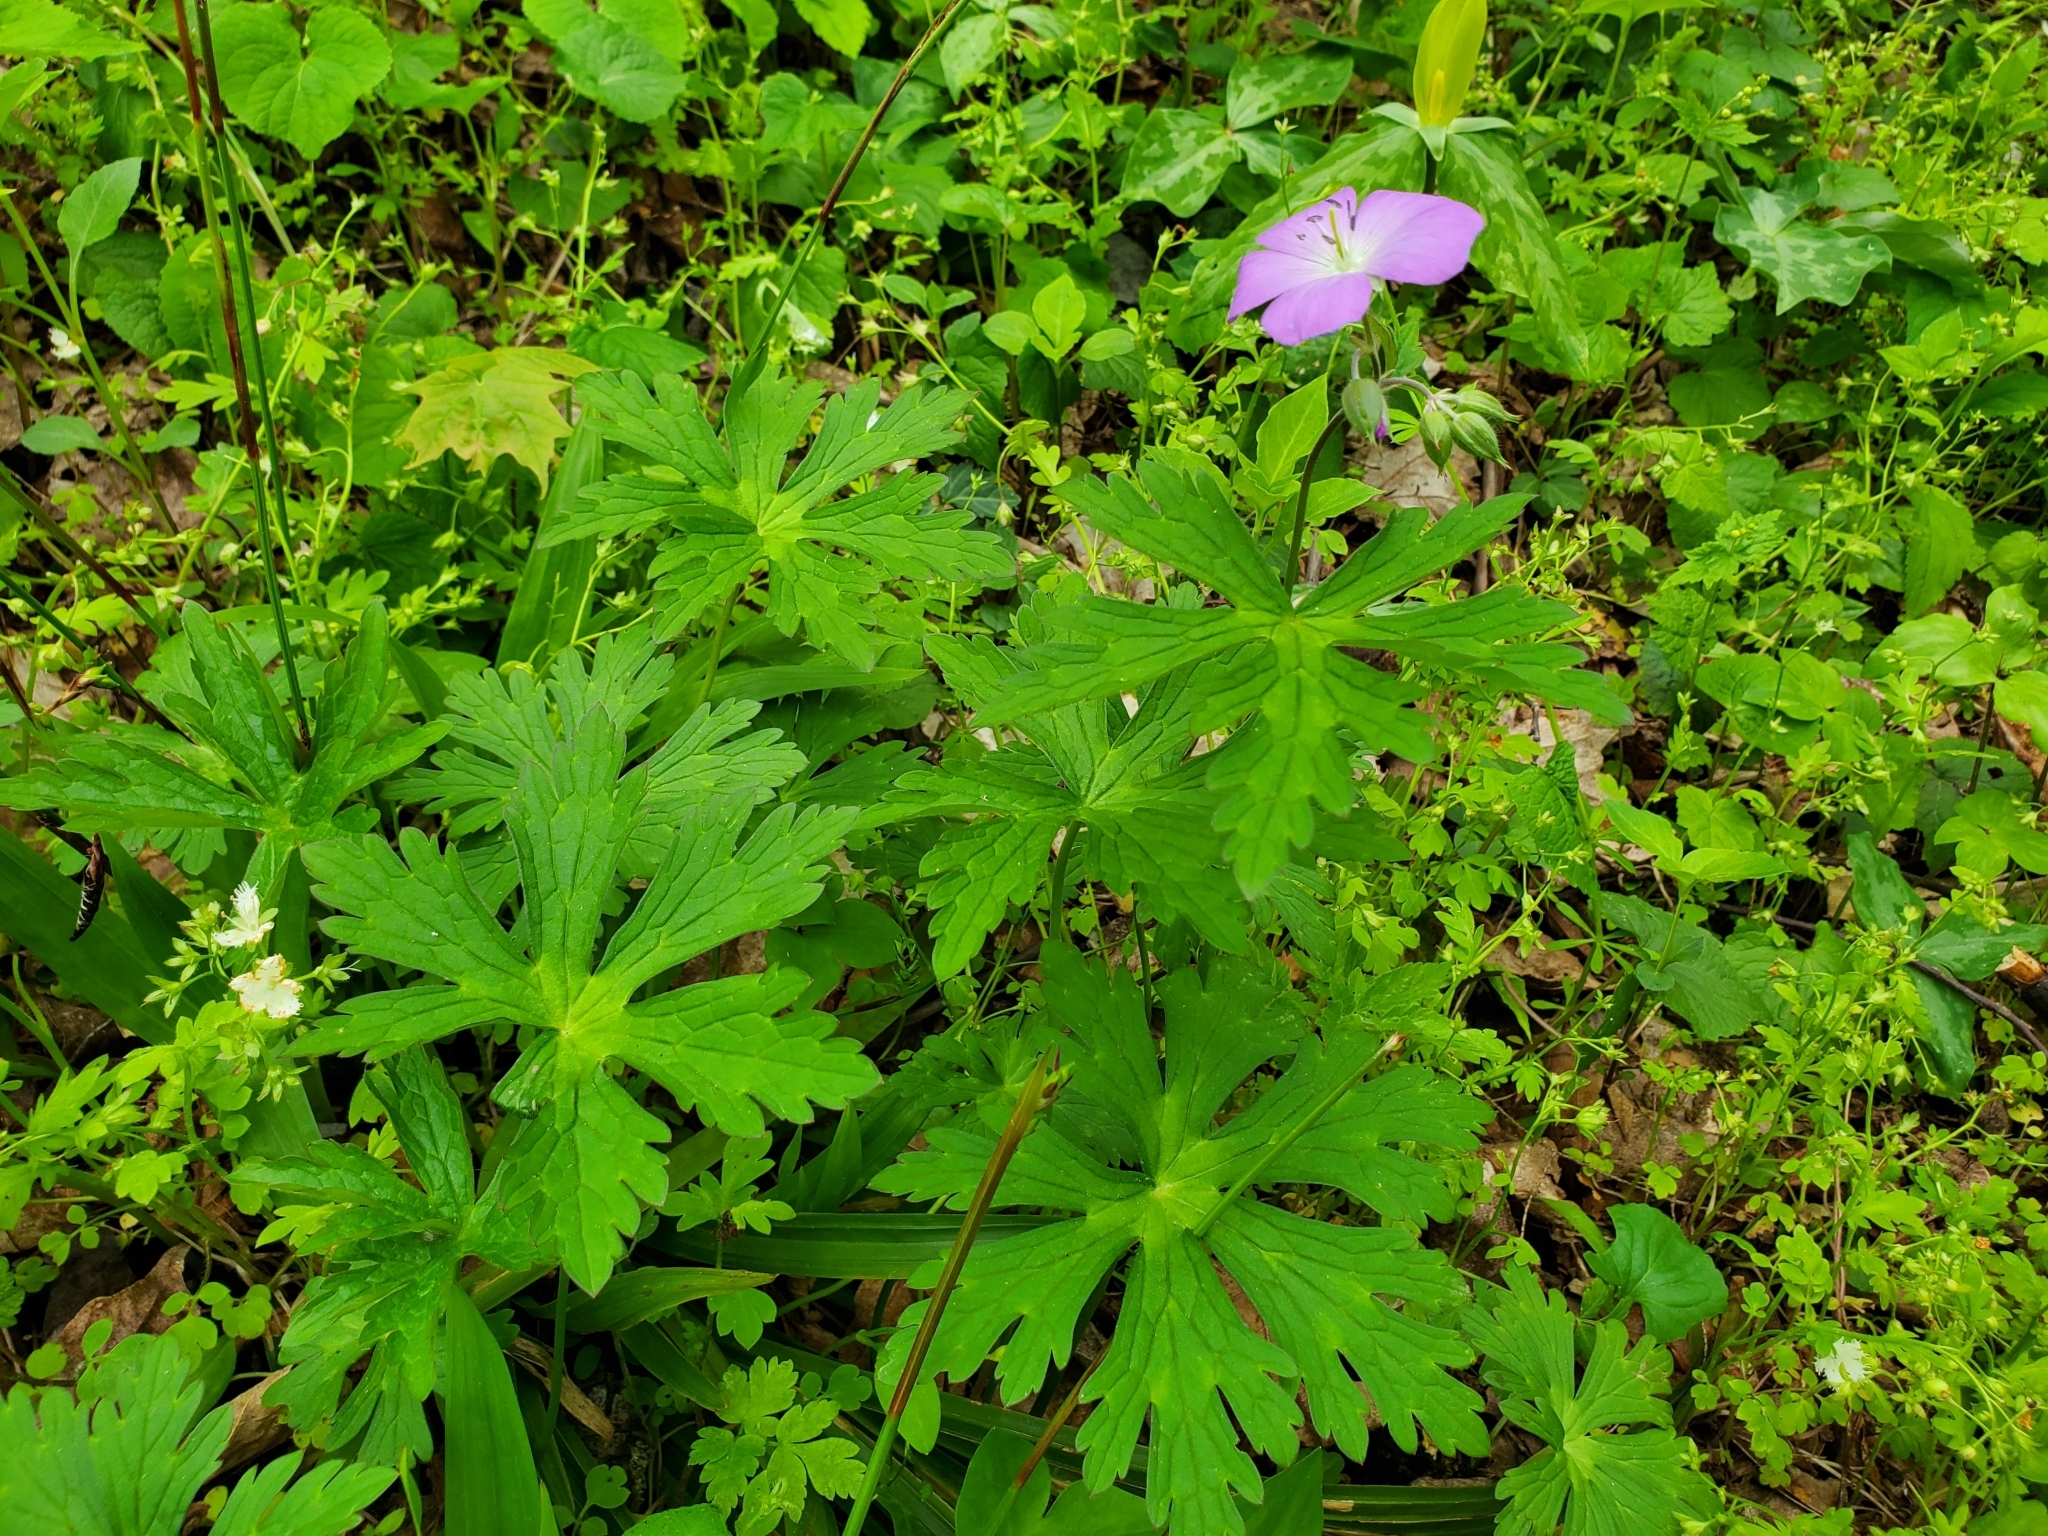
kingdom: Plantae
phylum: Tracheophyta
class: Magnoliopsida
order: Geraniales
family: Geraniaceae
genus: Geranium
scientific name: Geranium maculatum
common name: Spotted geranium
